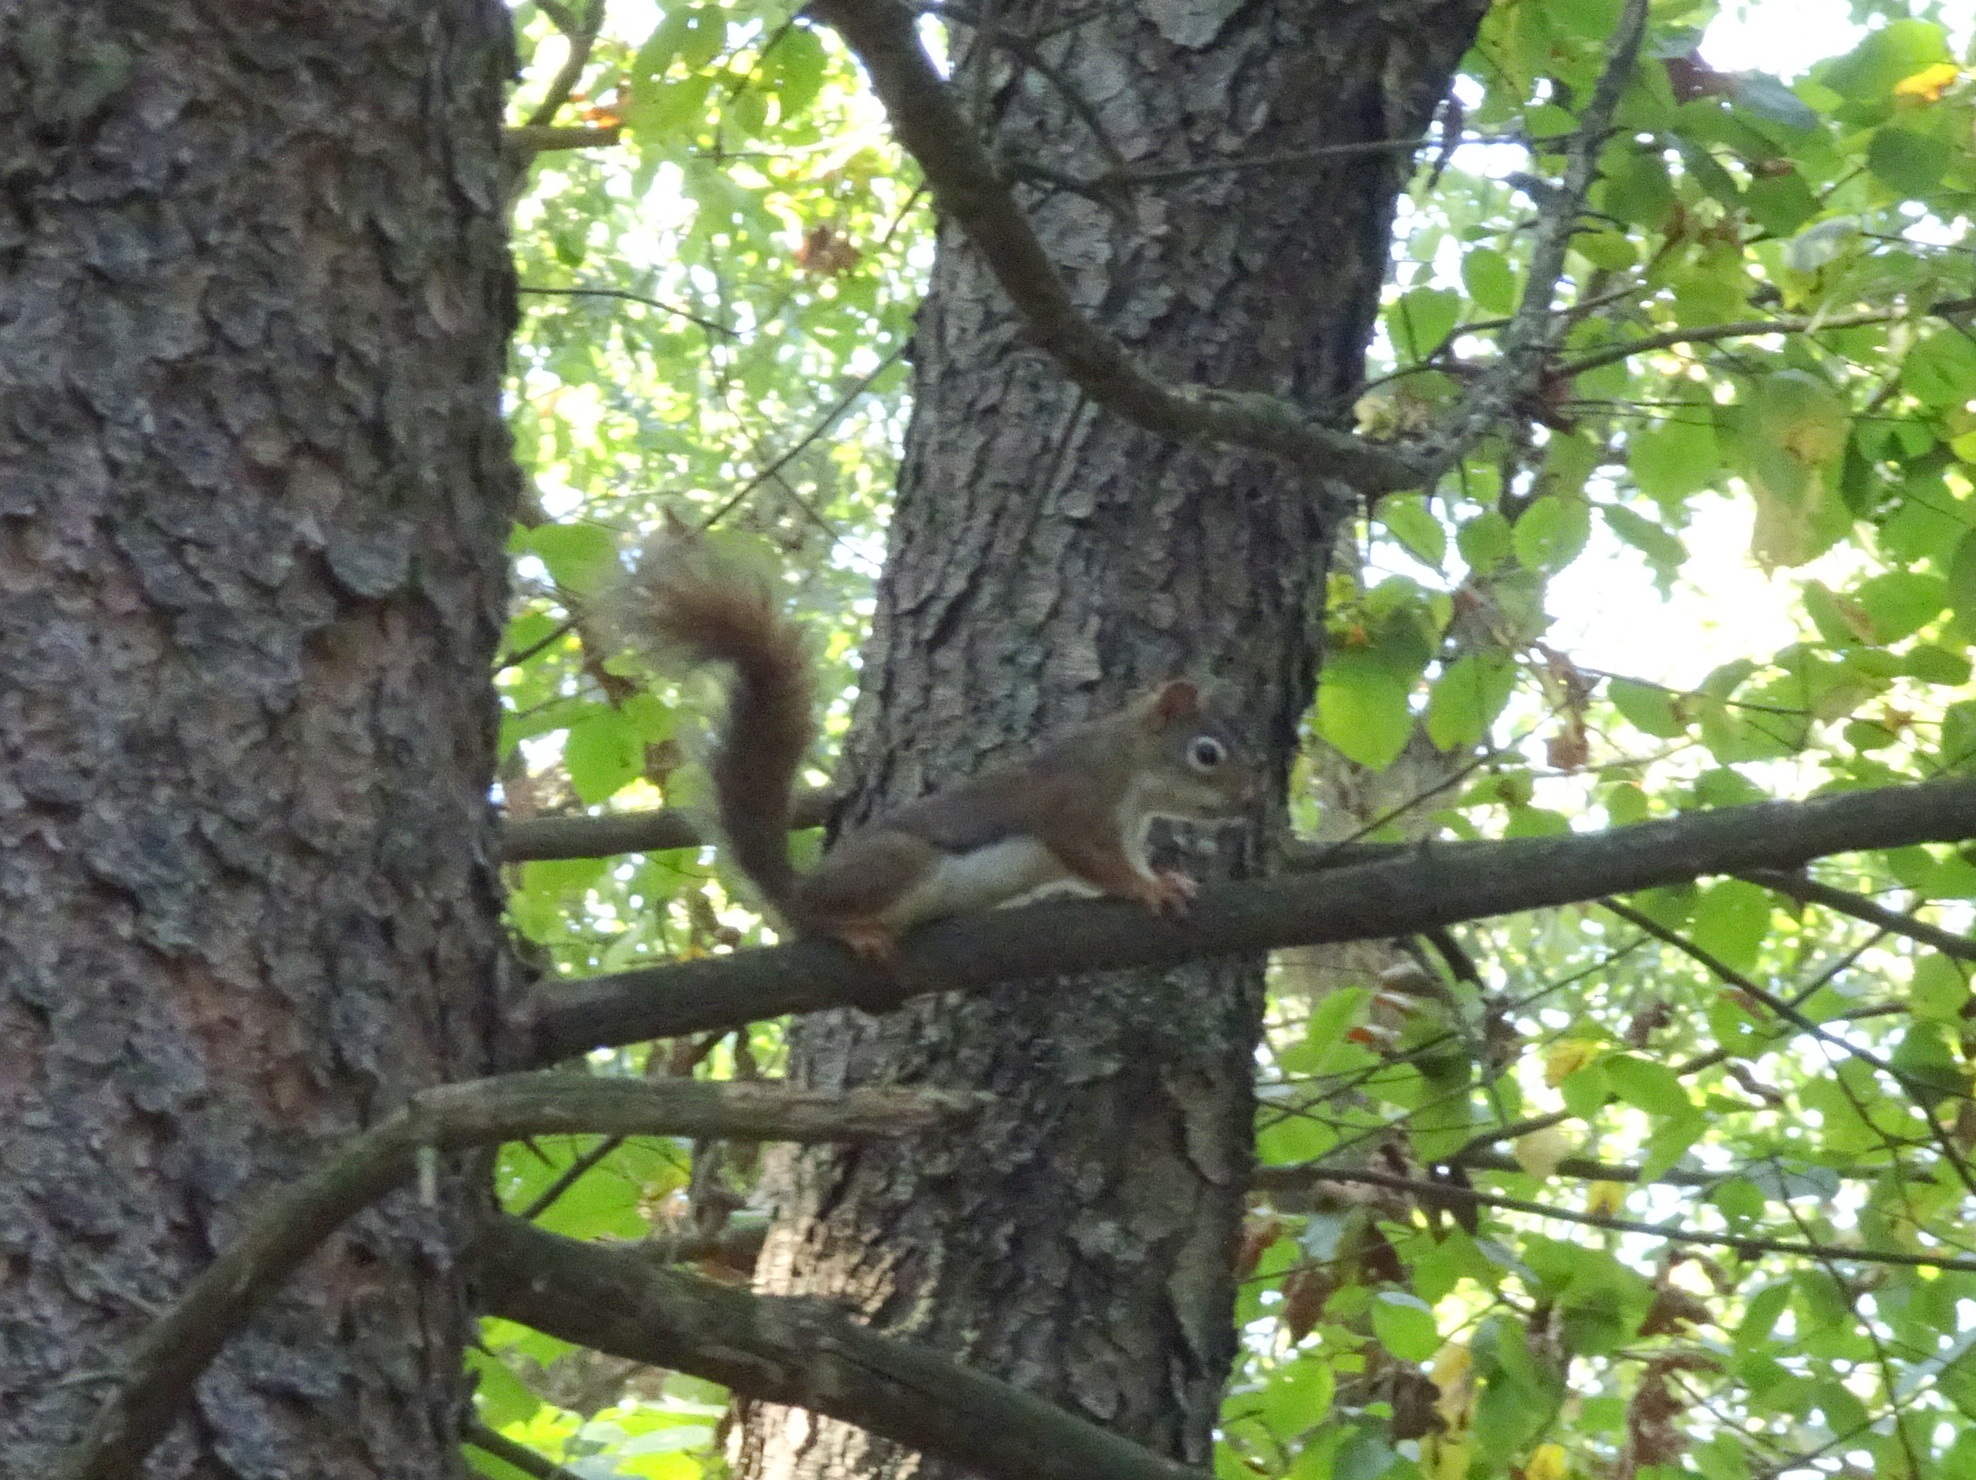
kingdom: Animalia
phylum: Chordata
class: Mammalia
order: Rodentia
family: Sciuridae
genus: Tamiasciurus
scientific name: Tamiasciurus hudsonicus
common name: Red squirrel
